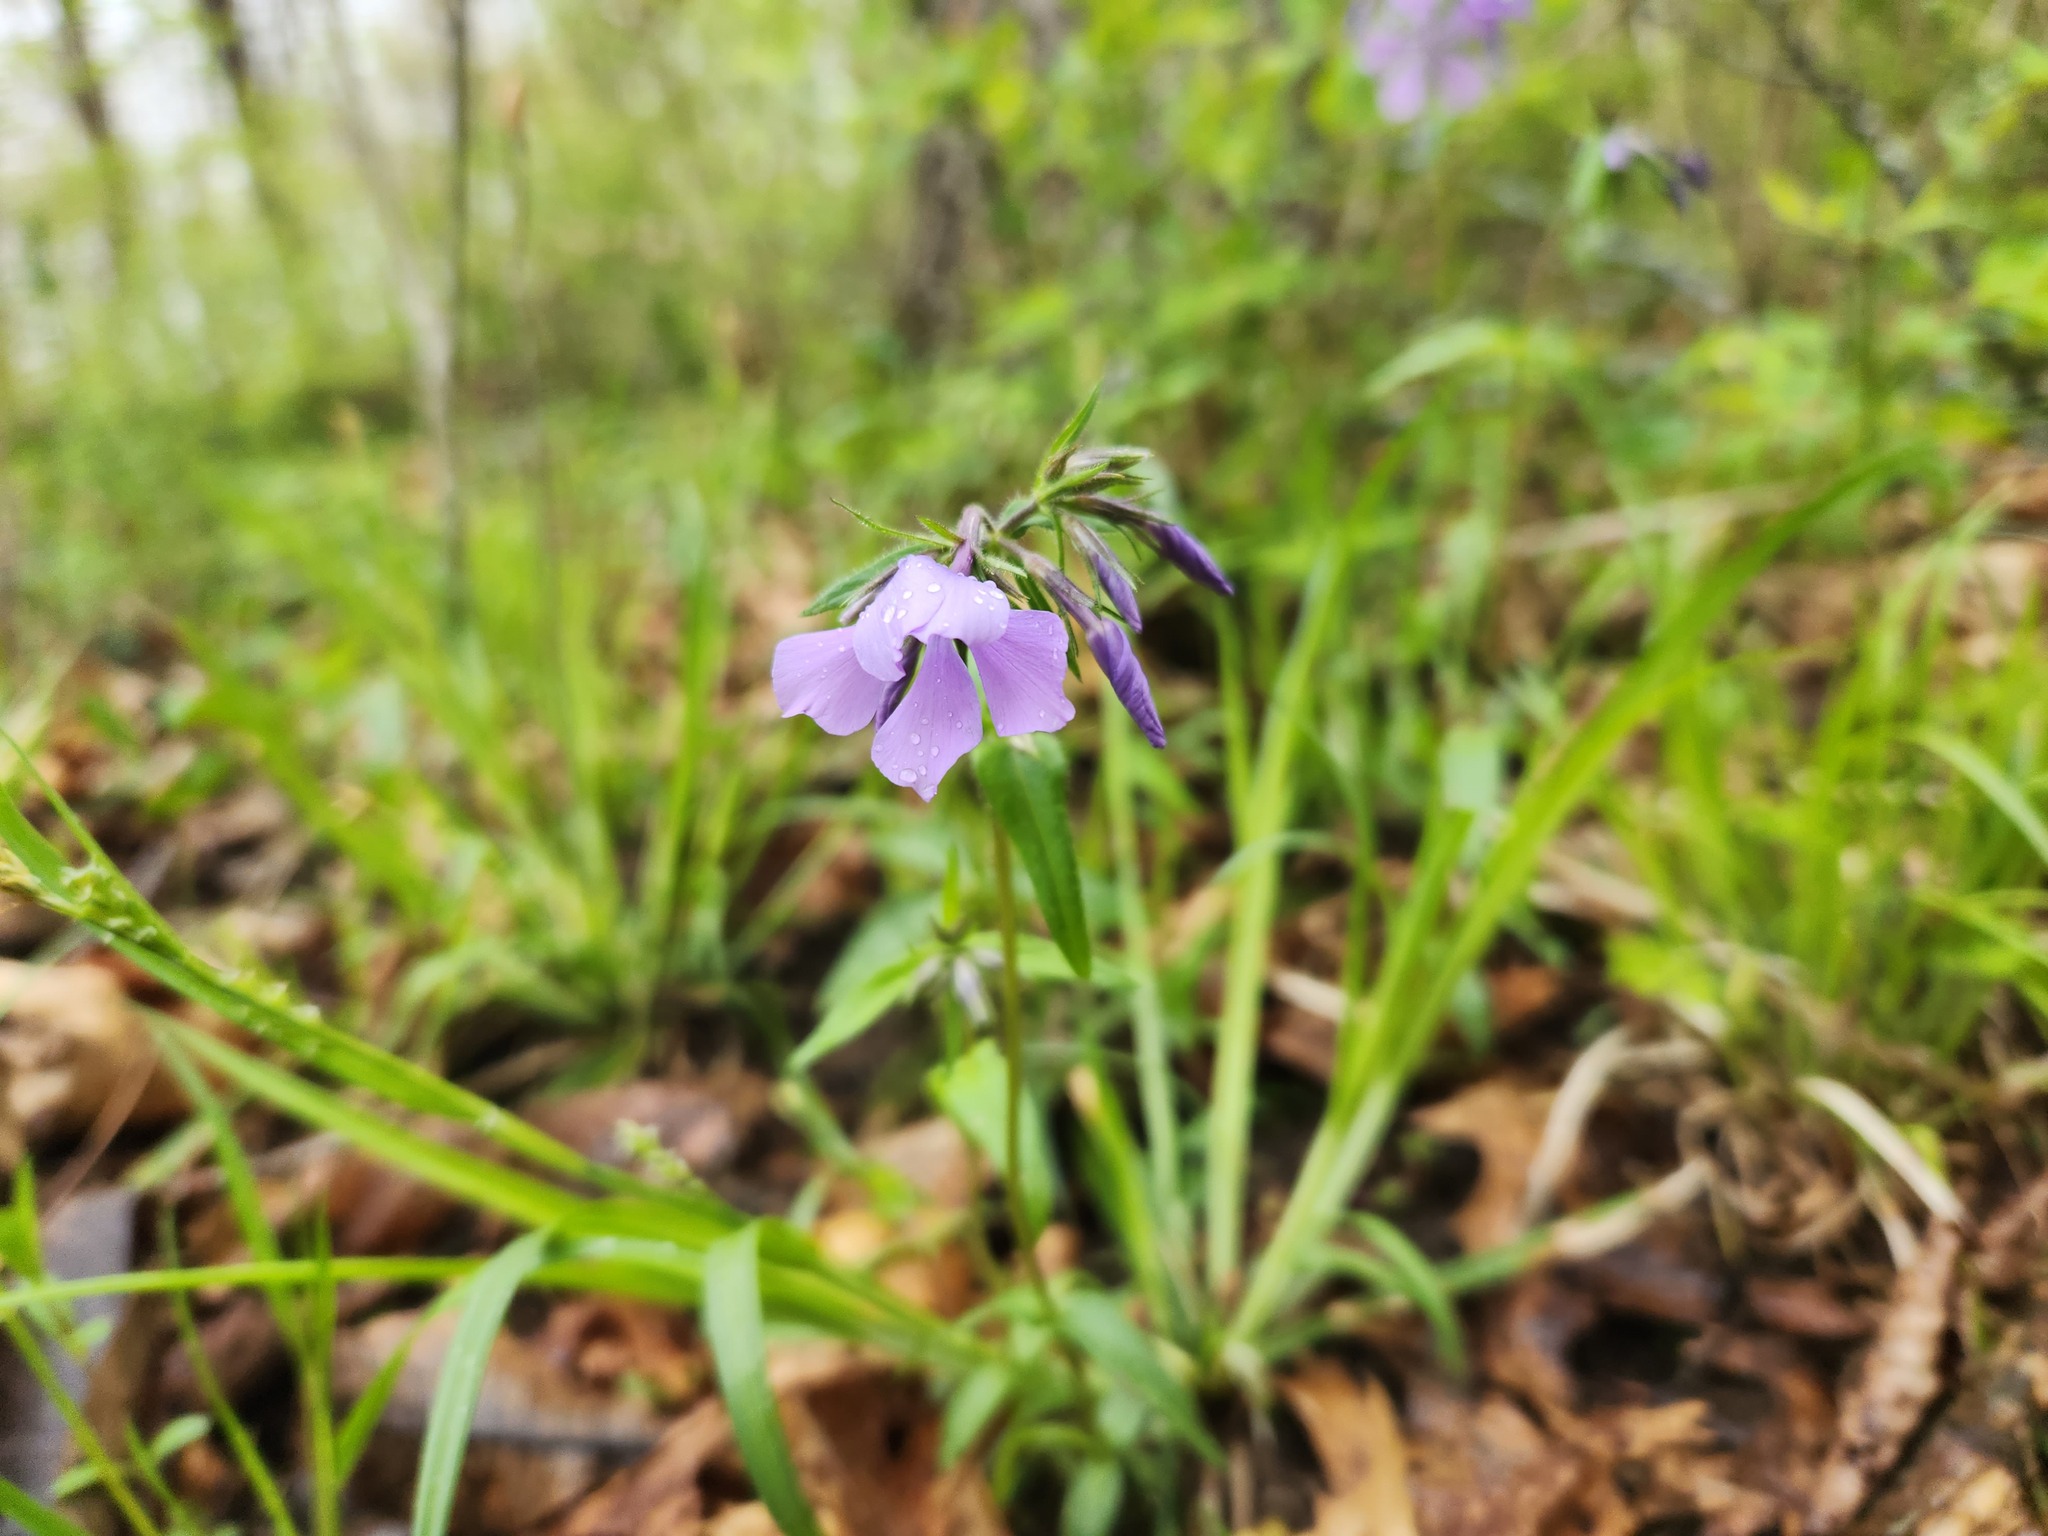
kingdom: Plantae
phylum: Tracheophyta
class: Magnoliopsida
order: Ericales
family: Polemoniaceae
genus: Phlox
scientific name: Phlox divaricata
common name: Blue phlox
